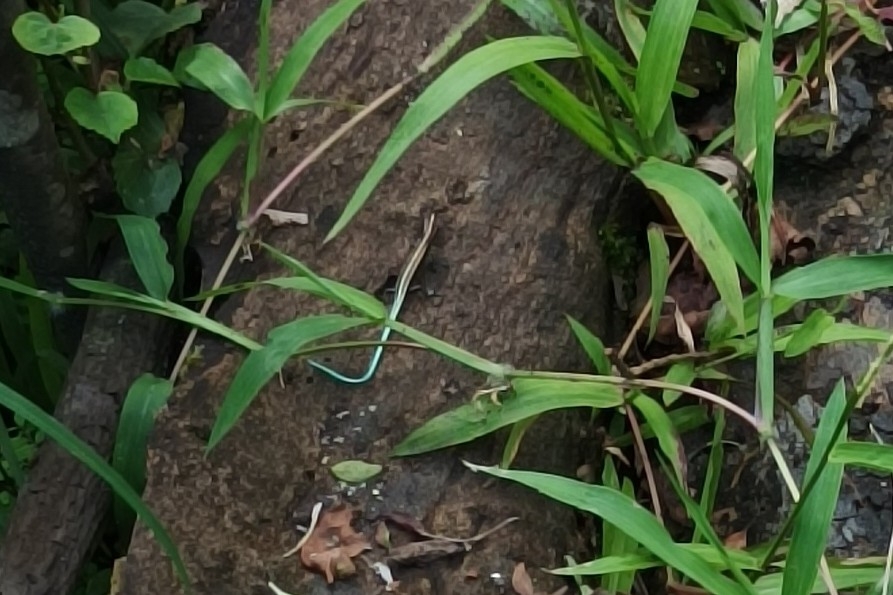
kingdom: Animalia
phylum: Chordata
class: Squamata
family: Scincidae
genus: Emoia
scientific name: Emoia caeruleocauda
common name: Pacific bluetail skink
